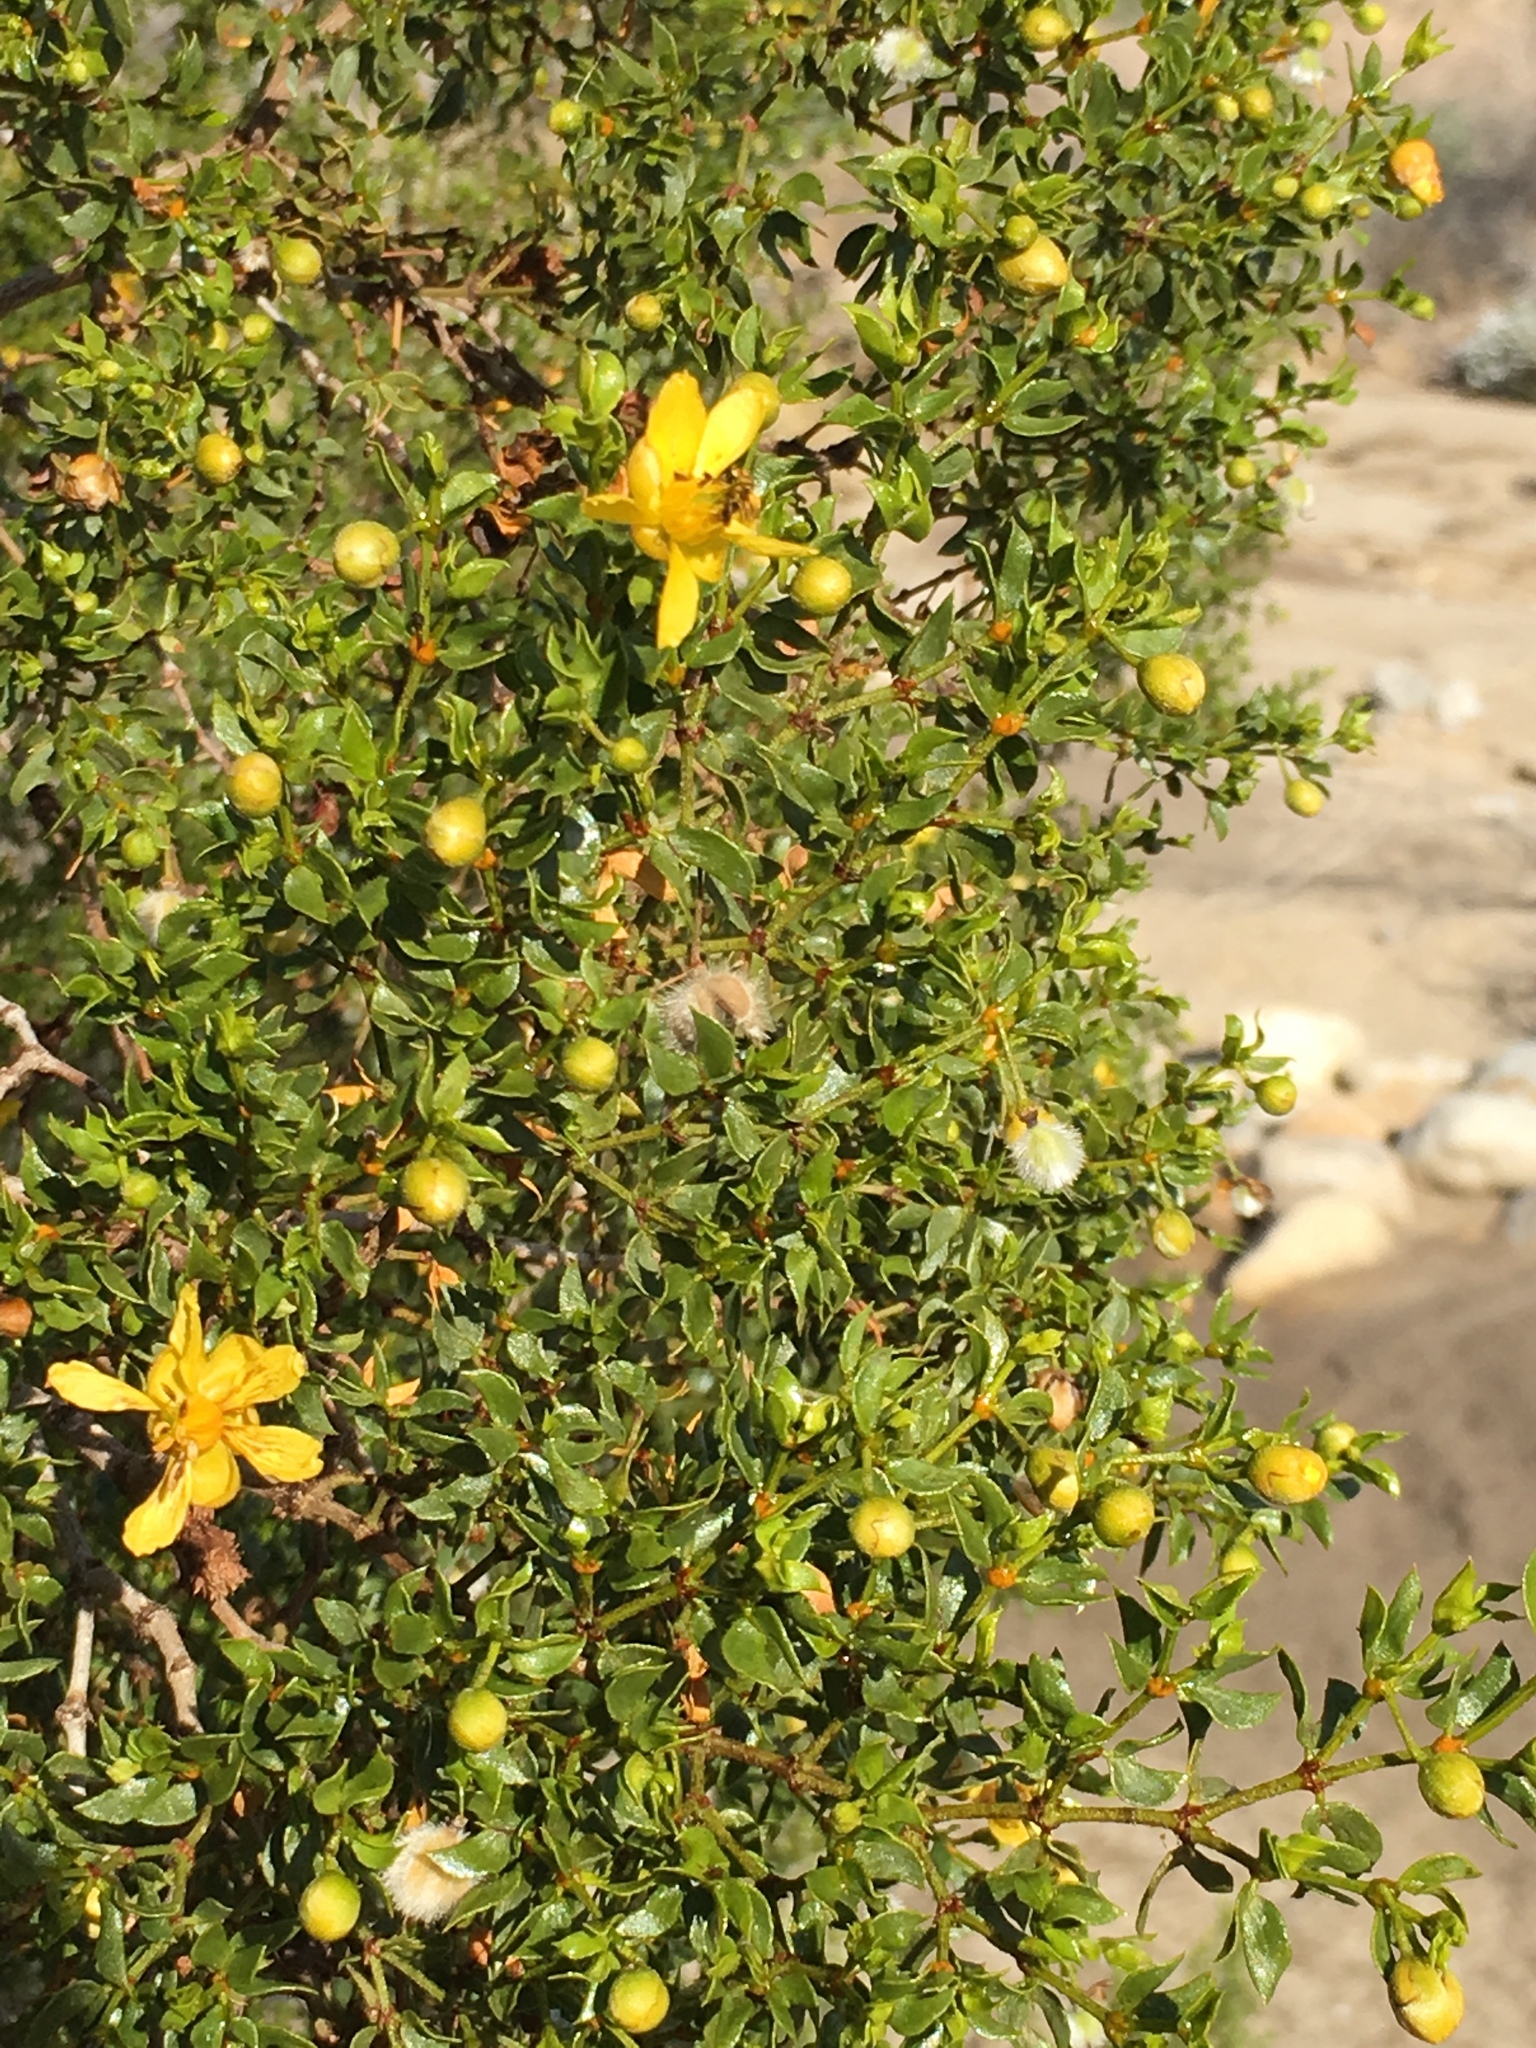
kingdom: Plantae
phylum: Tracheophyta
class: Magnoliopsida
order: Zygophyllales
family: Zygophyllaceae
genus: Larrea
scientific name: Larrea tridentata
